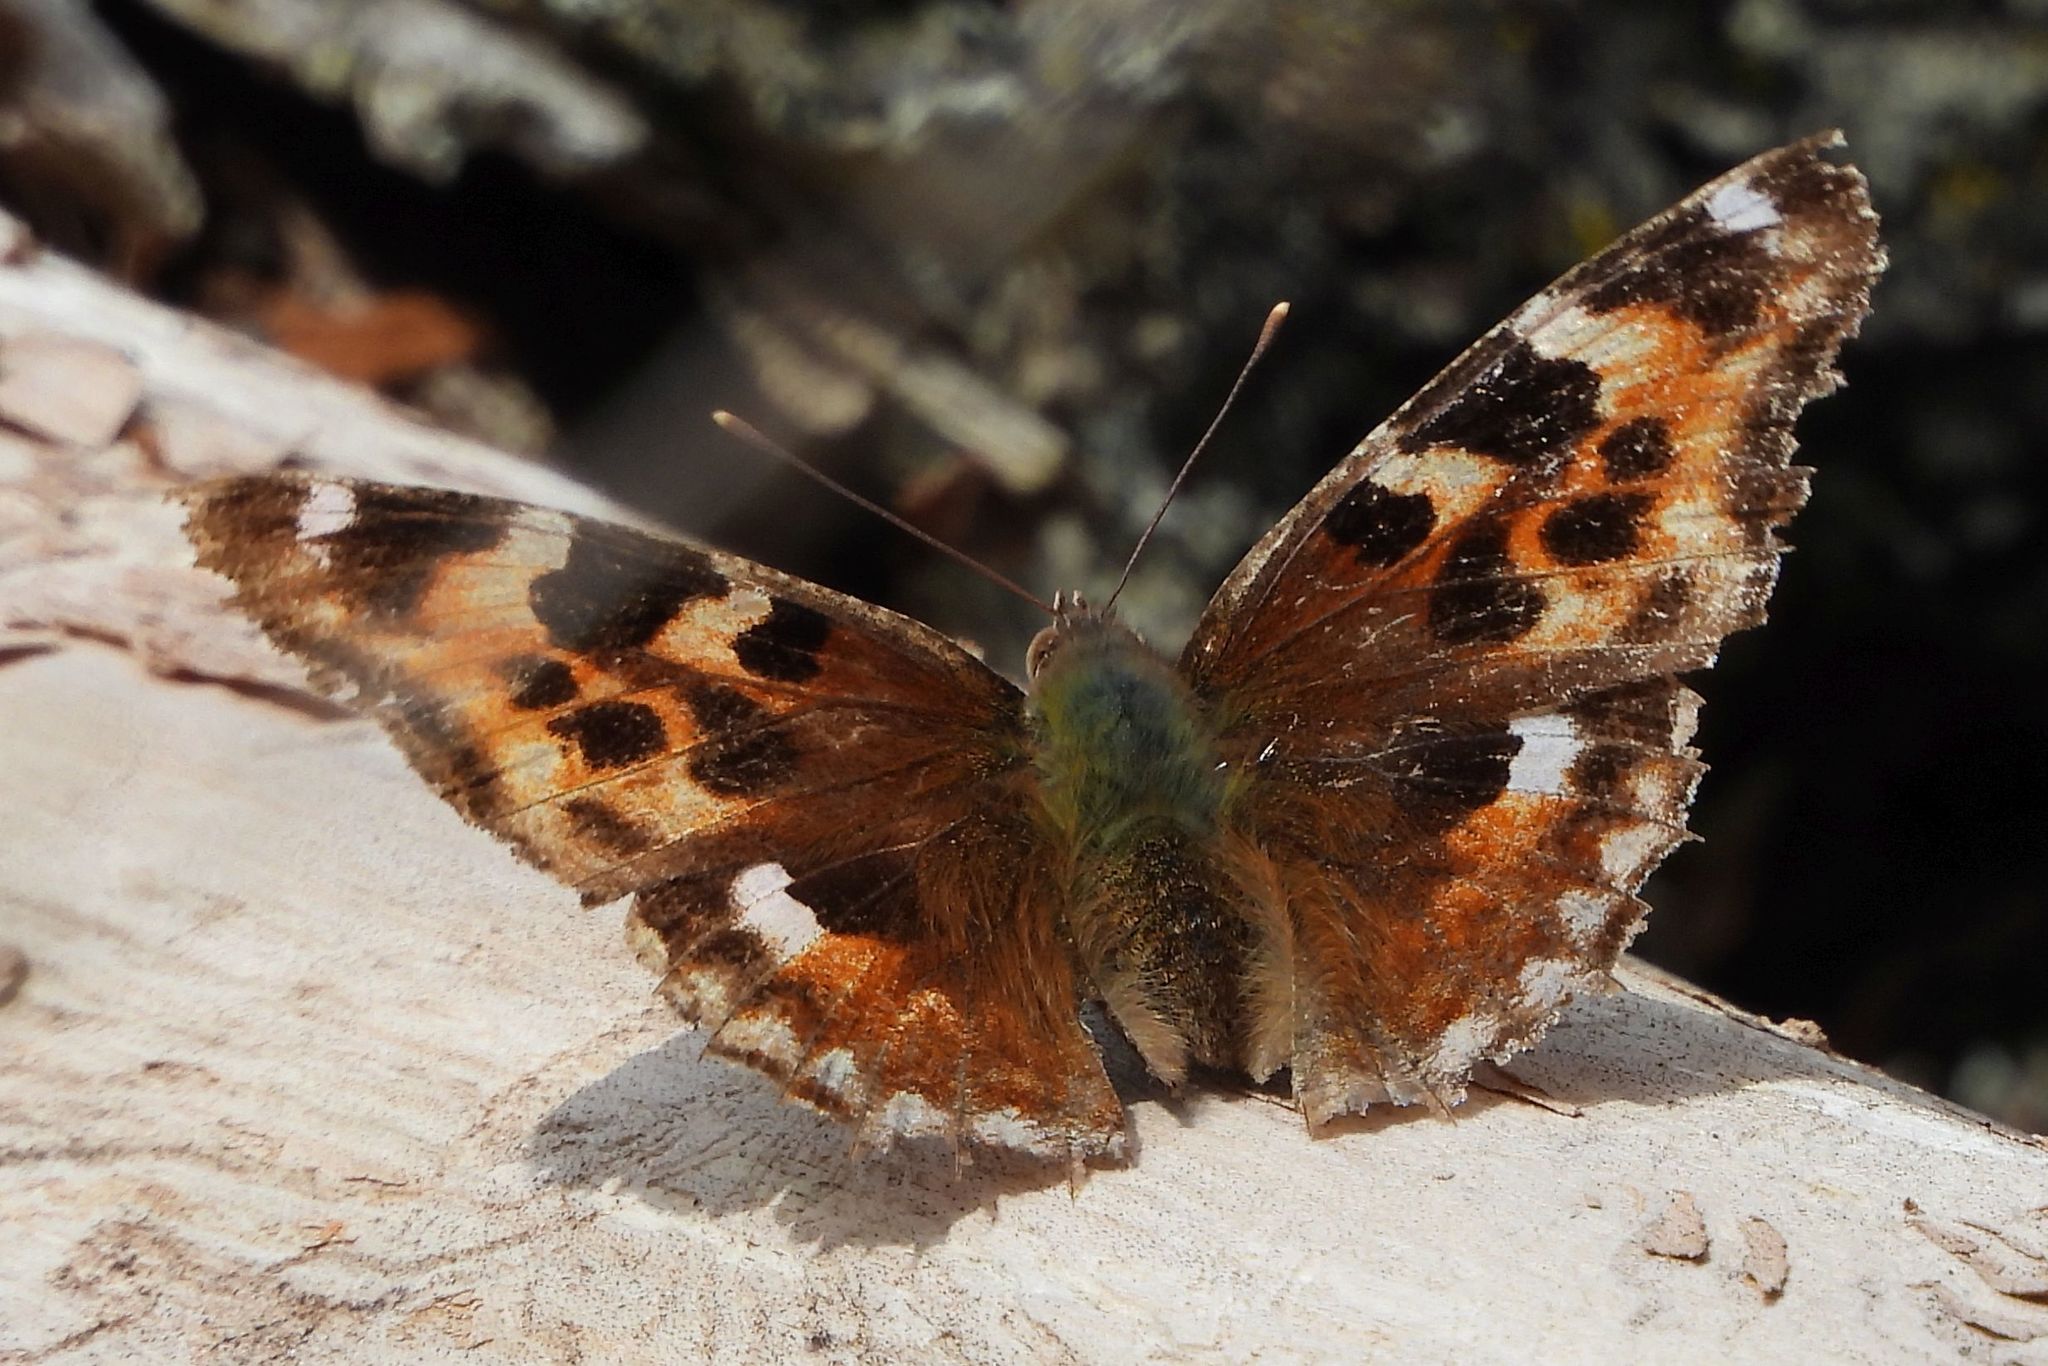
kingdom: Animalia
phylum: Arthropoda
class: Insecta
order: Lepidoptera
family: Nymphalidae
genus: Polygonia
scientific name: Polygonia vaualbum
